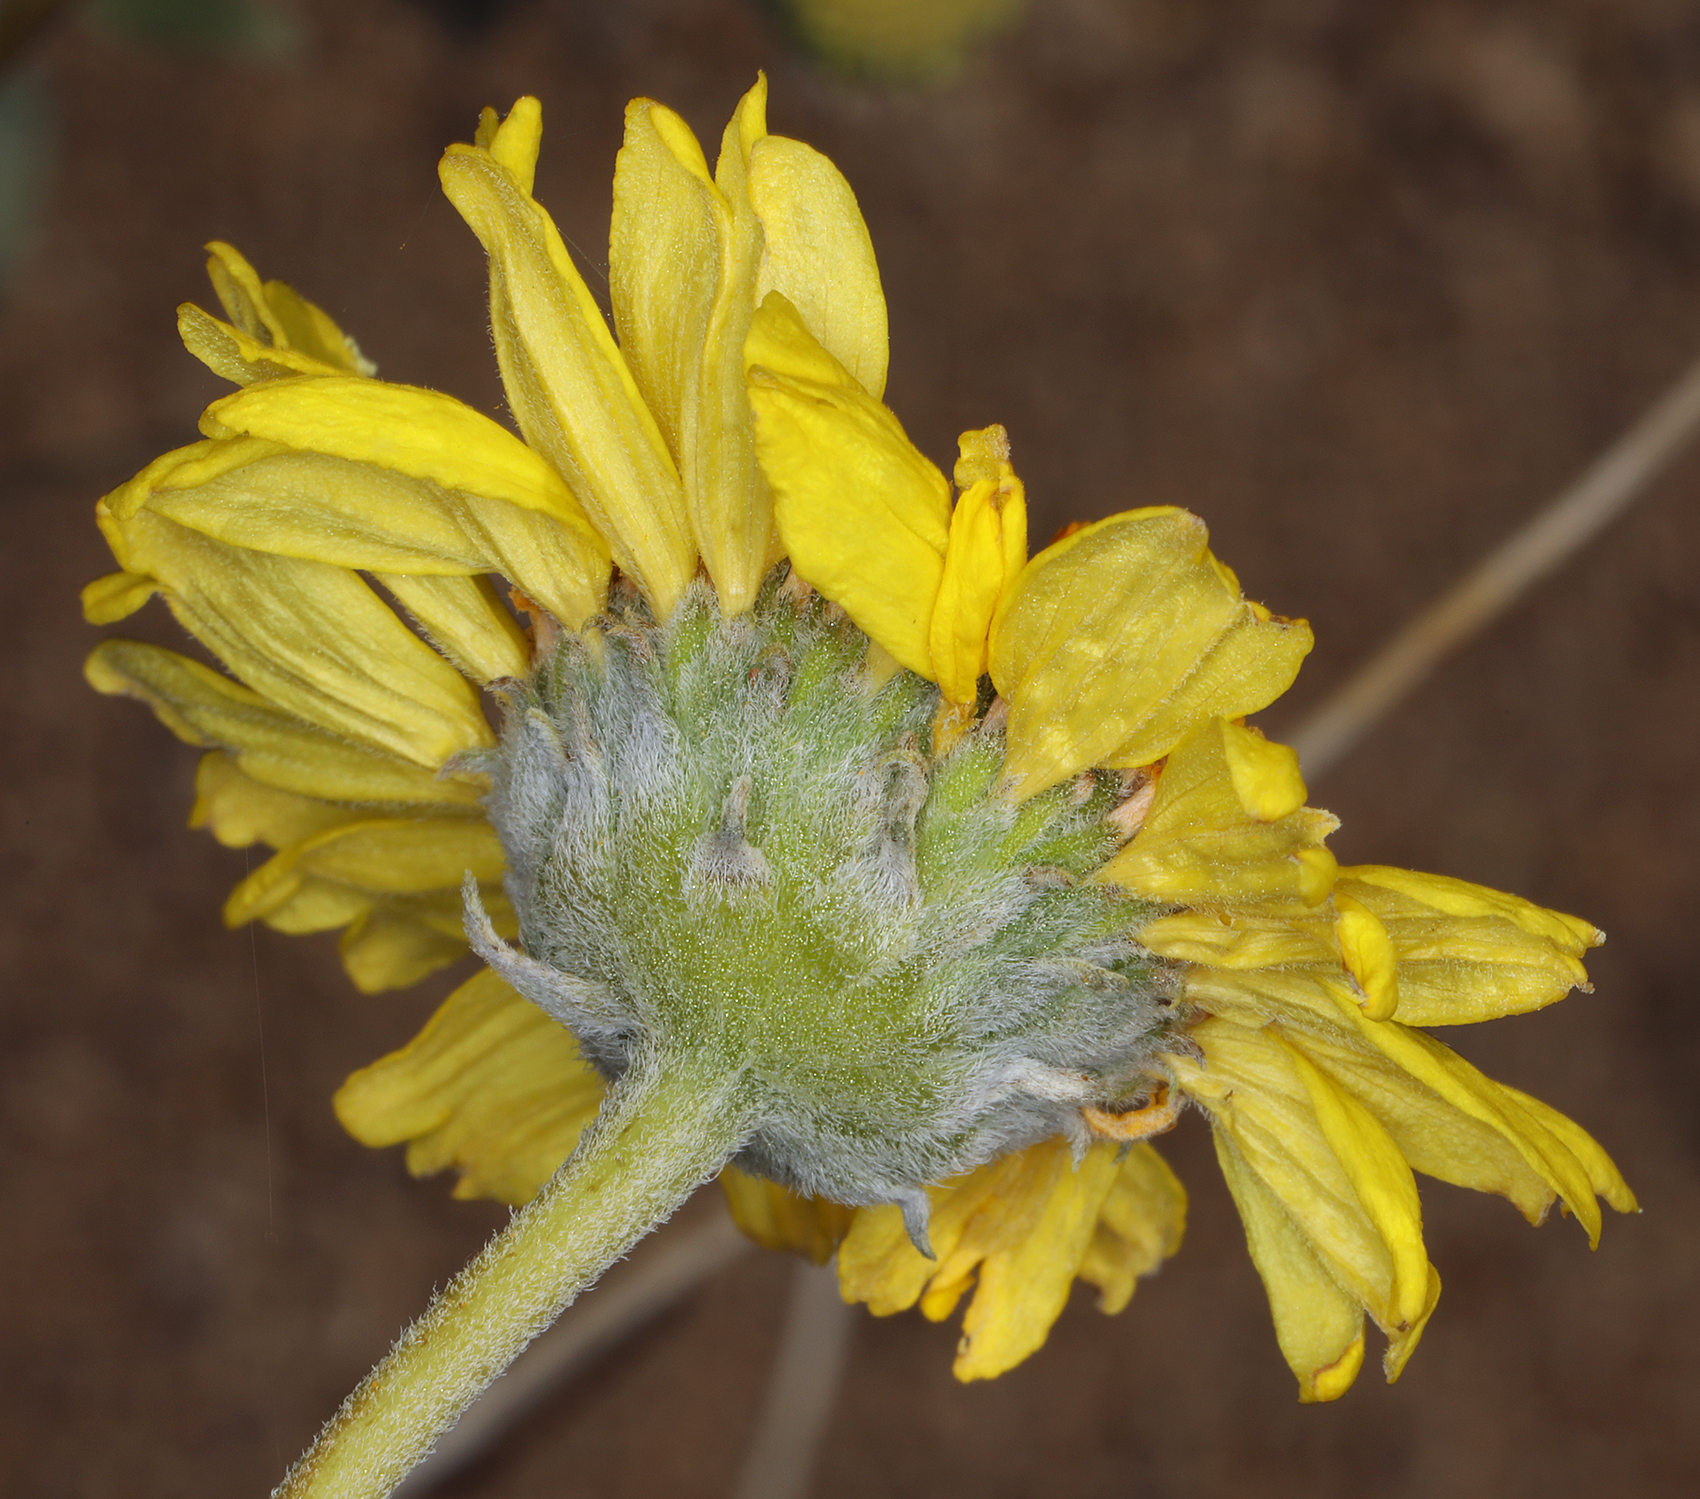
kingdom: Plantae
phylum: Tracheophyta
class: Magnoliopsida
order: Asterales
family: Asteraceae
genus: Encelia
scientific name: Encelia actoni
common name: Acton encelia
